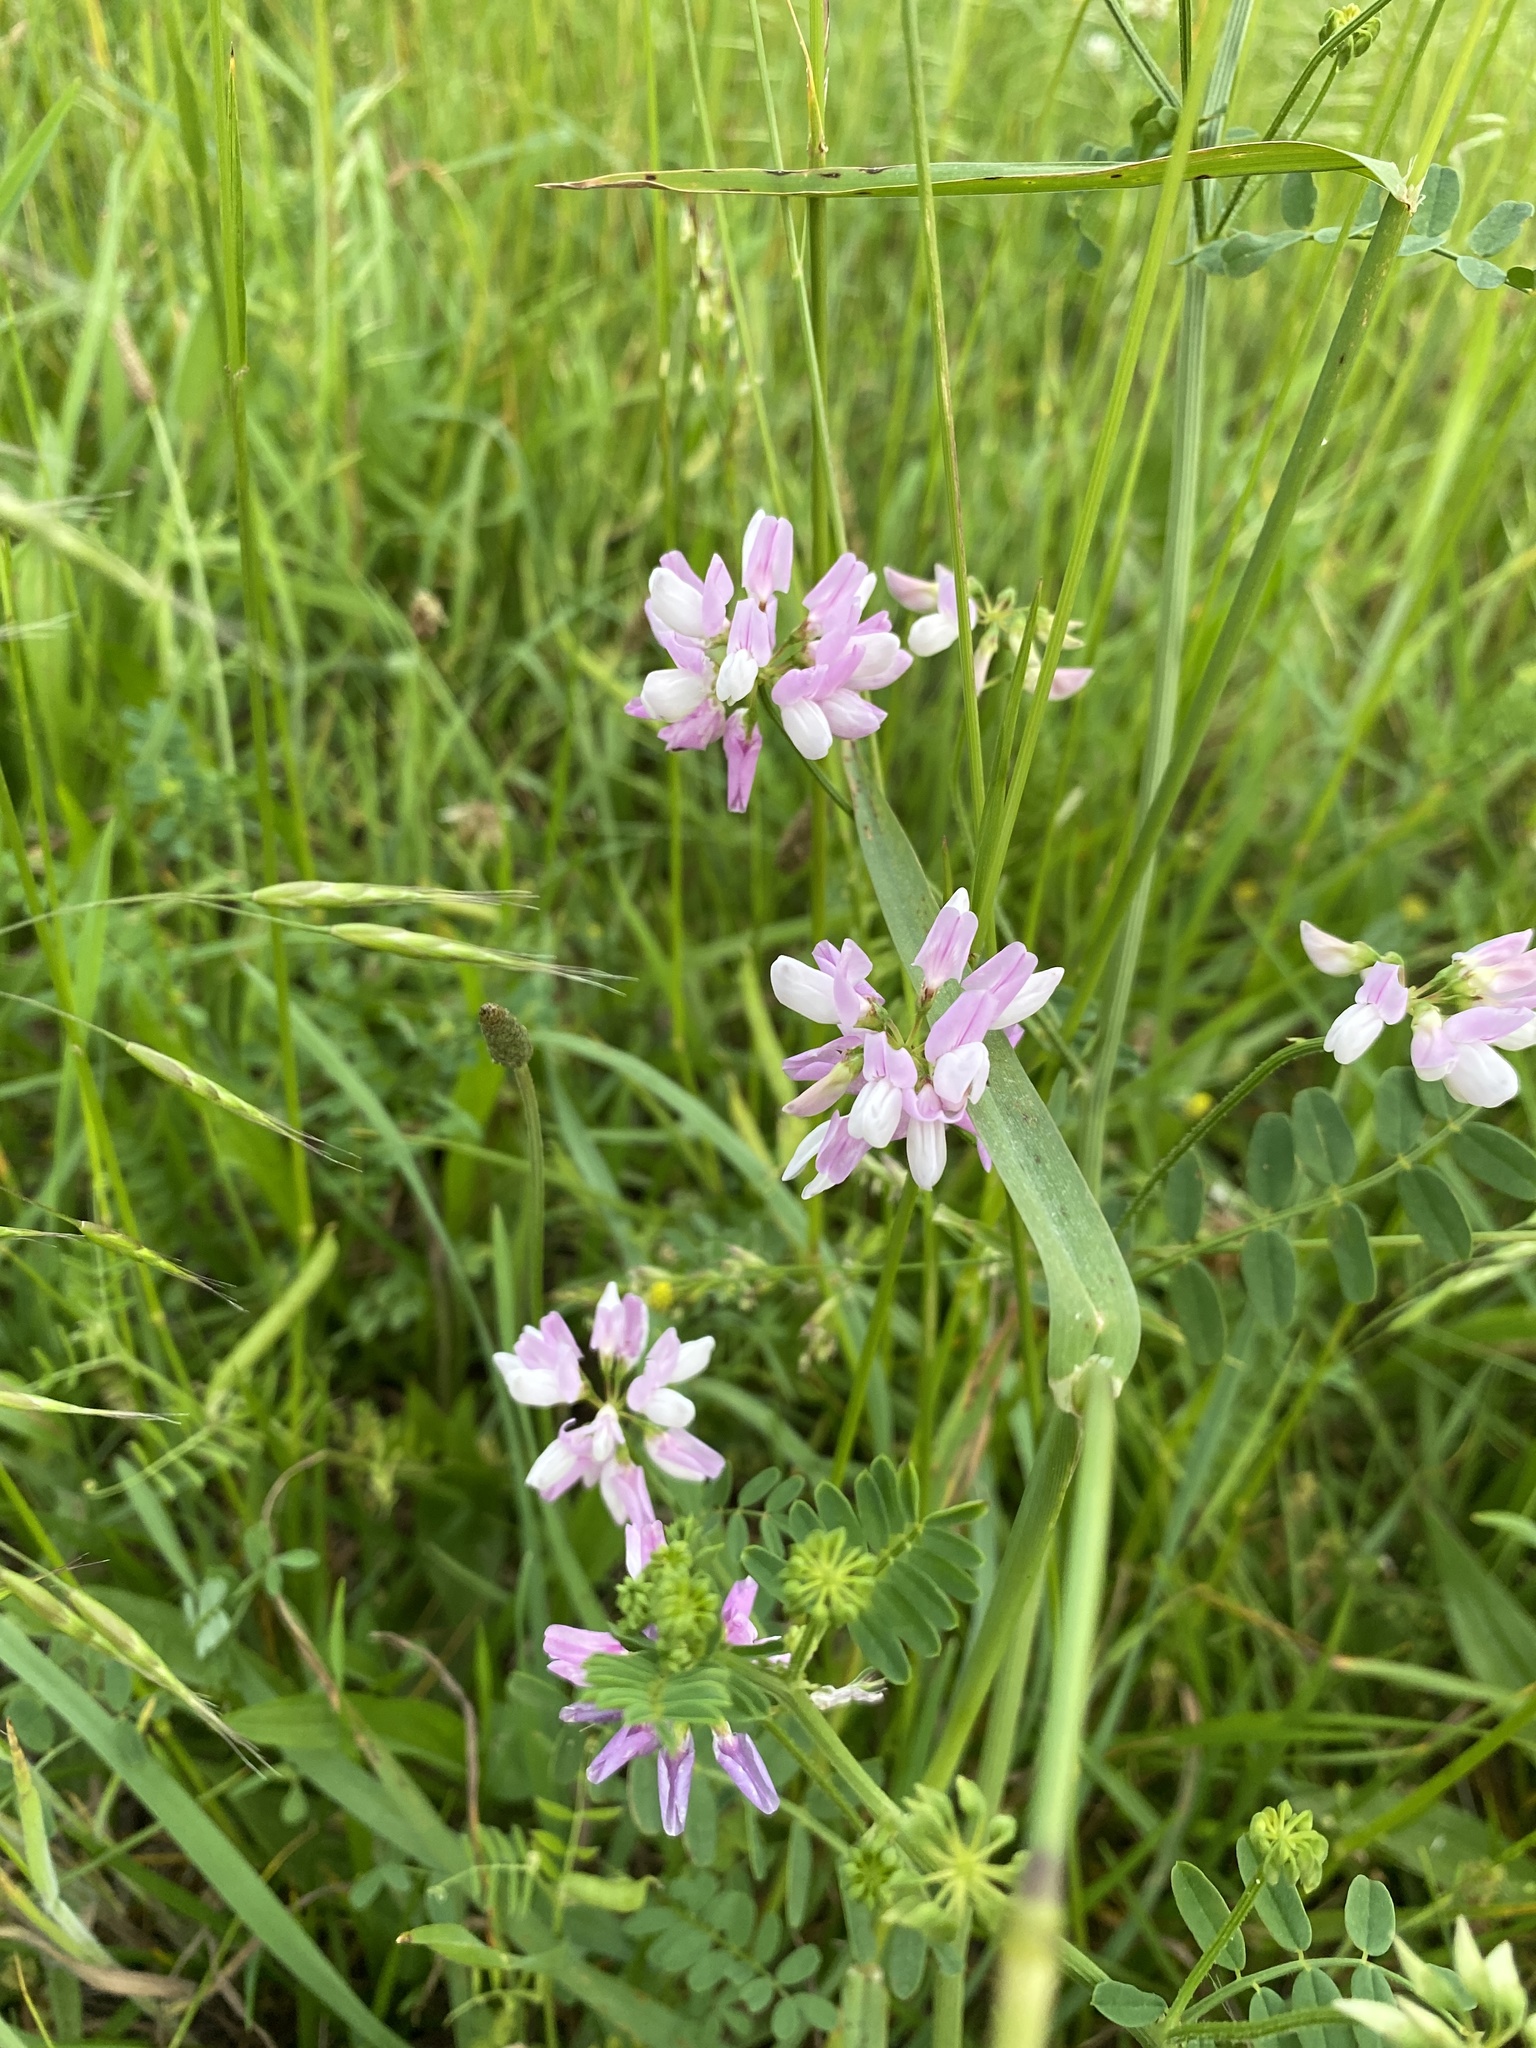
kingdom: Plantae
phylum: Tracheophyta
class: Magnoliopsida
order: Fabales
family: Fabaceae
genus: Coronilla
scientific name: Coronilla varia
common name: Crownvetch
